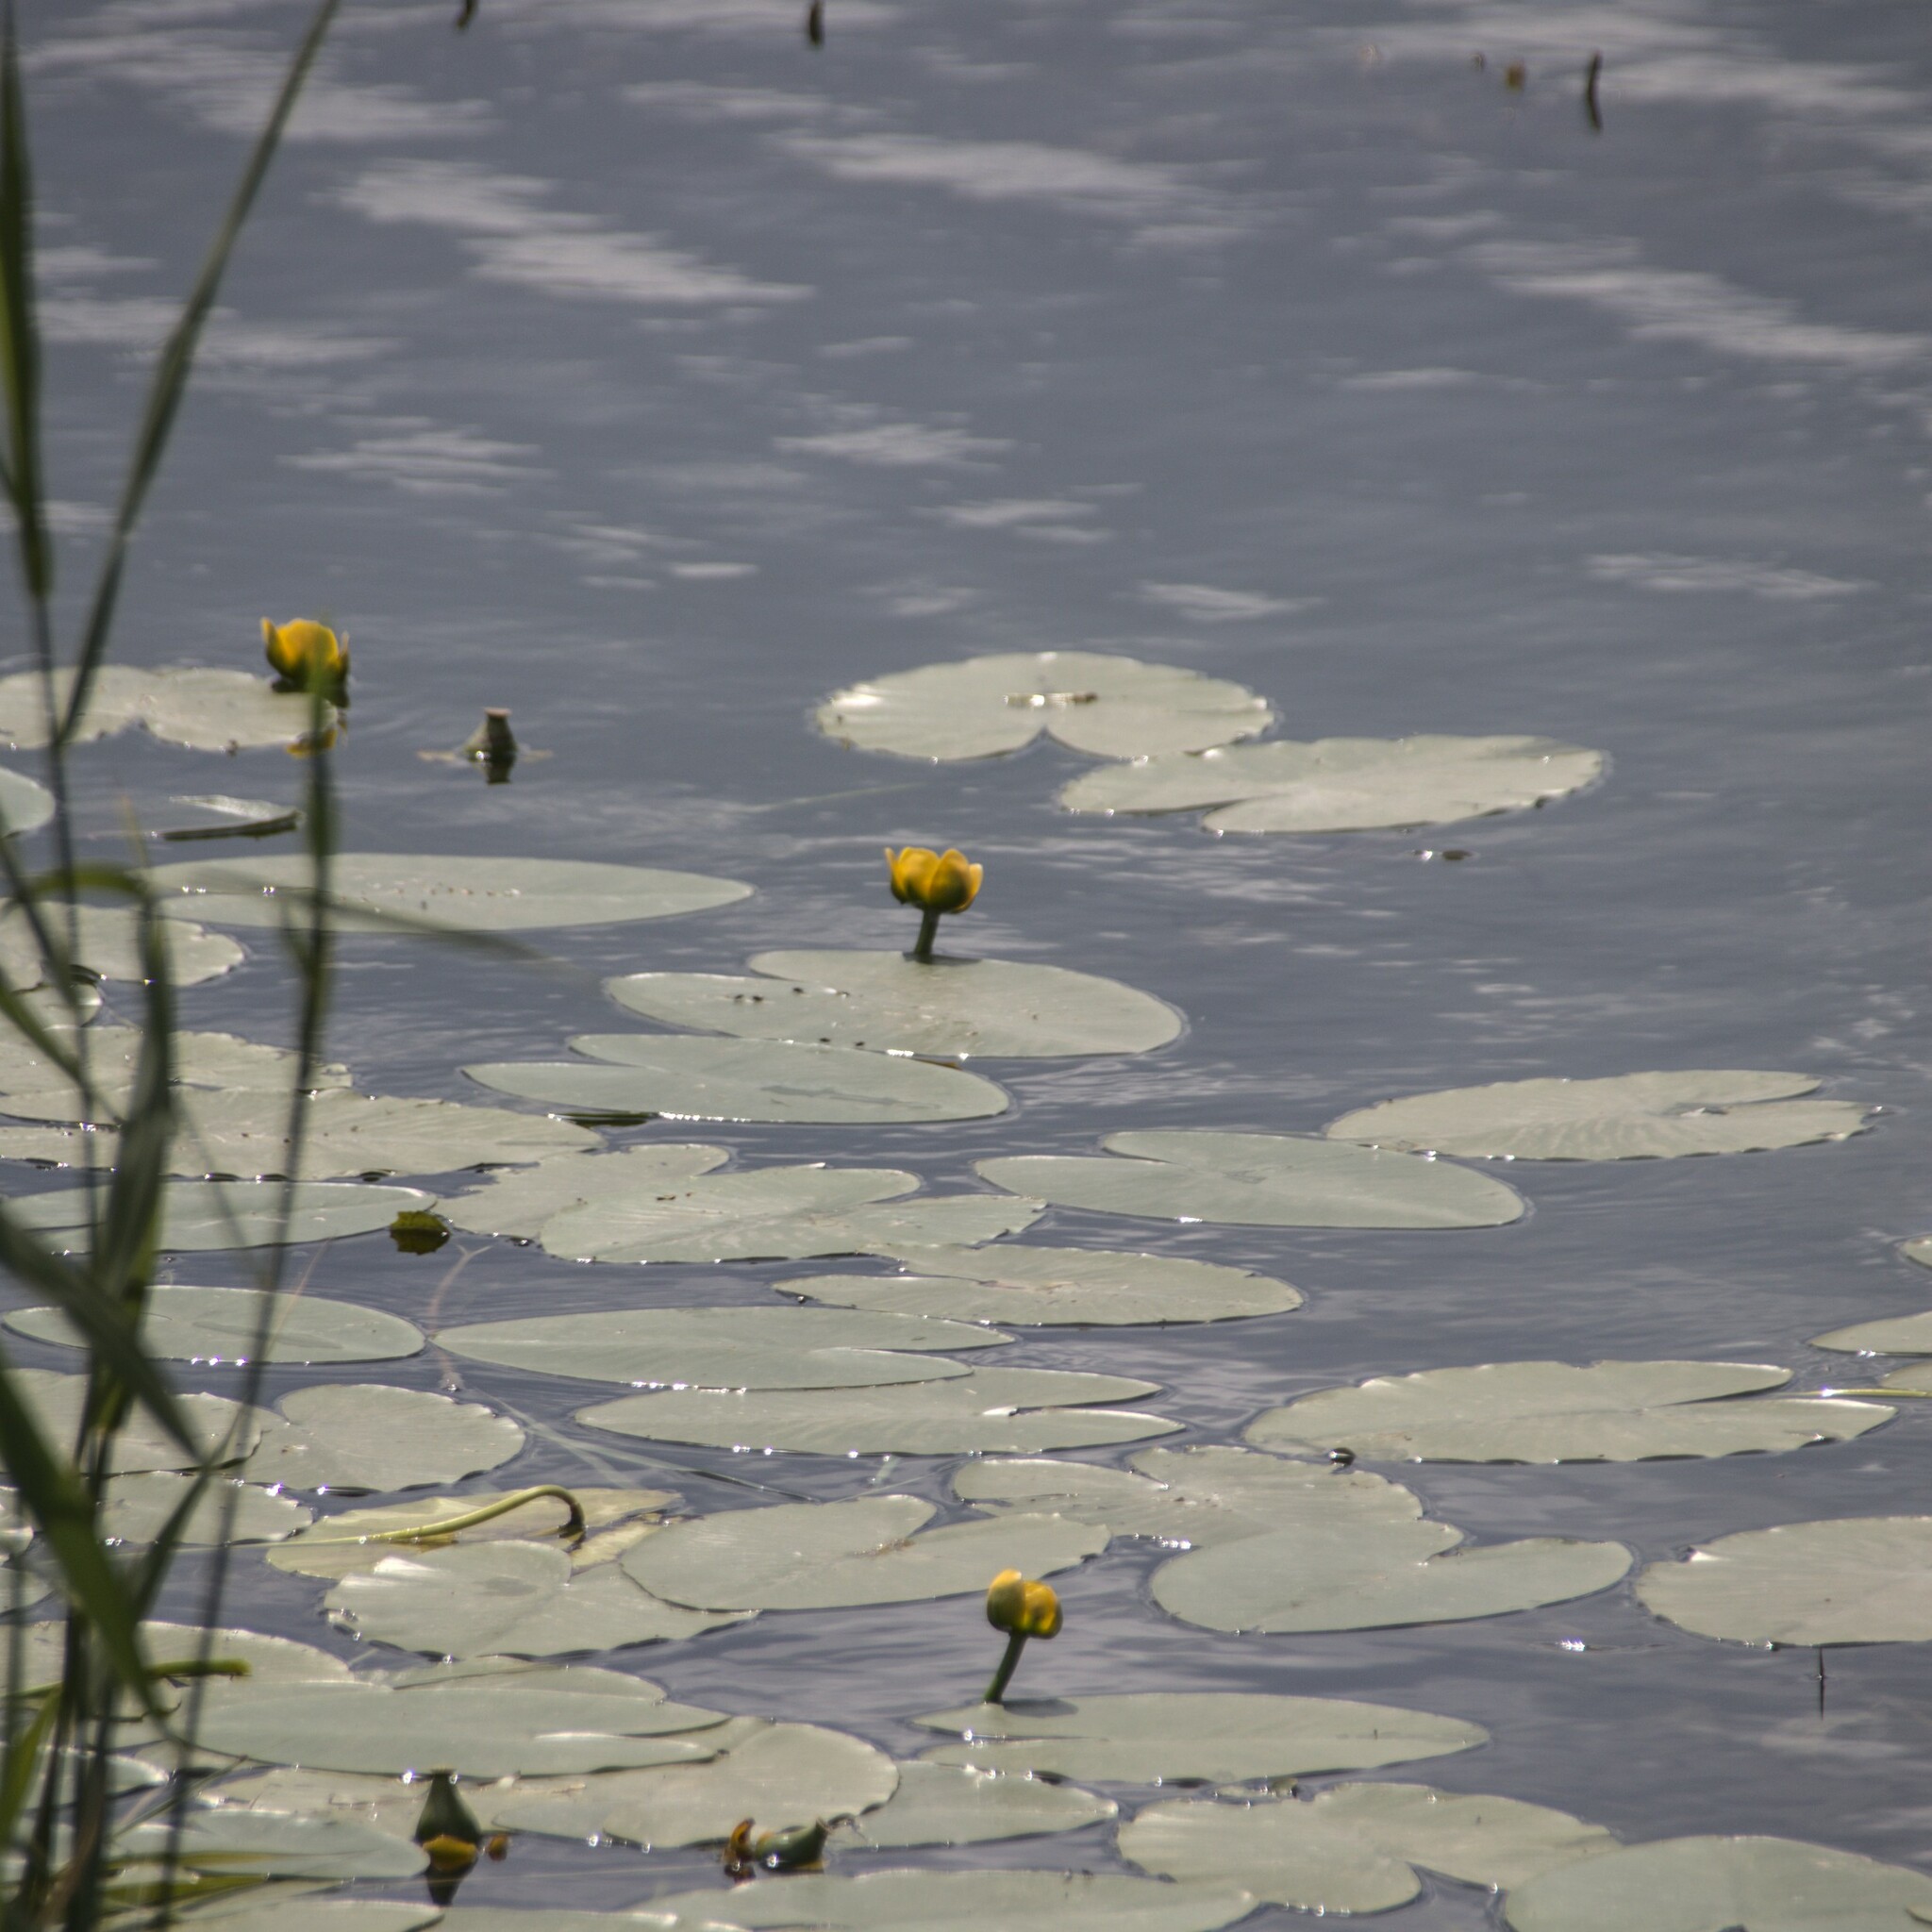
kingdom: Plantae
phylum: Tracheophyta
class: Magnoliopsida
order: Nymphaeales
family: Nymphaeaceae
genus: Nuphar
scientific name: Nuphar lutea
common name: Yellow water-lily
